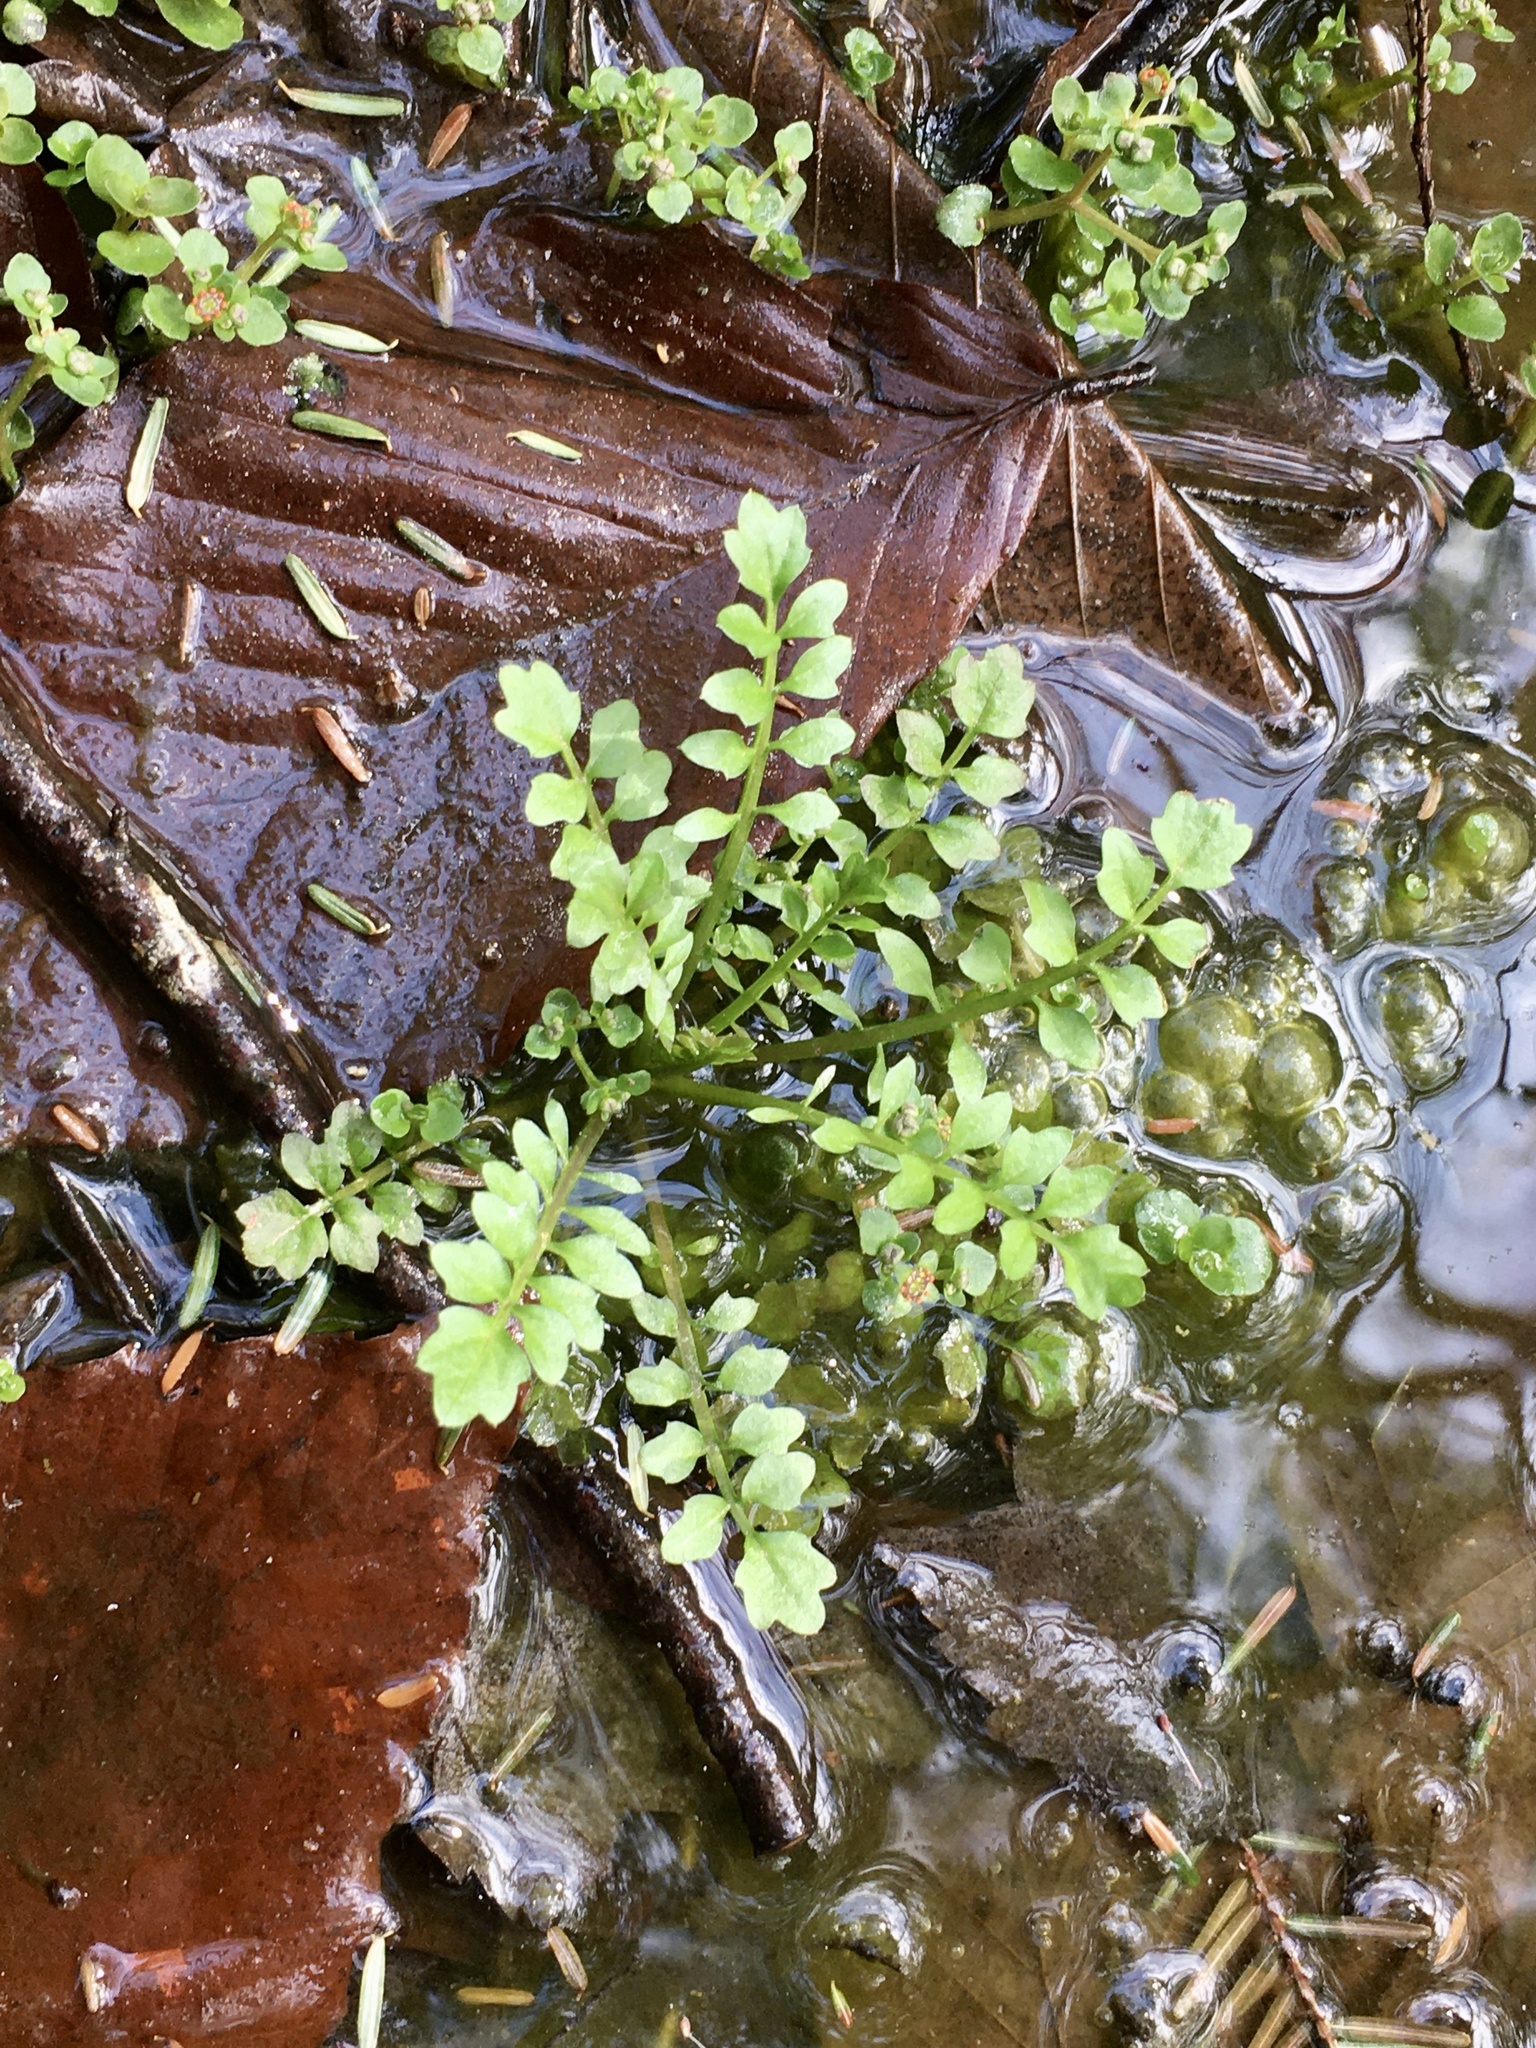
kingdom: Plantae
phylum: Tracheophyta
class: Magnoliopsida
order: Brassicales
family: Brassicaceae
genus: Cardamine
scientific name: Cardamine pensylvanica
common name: Pennsylvania bittercress
